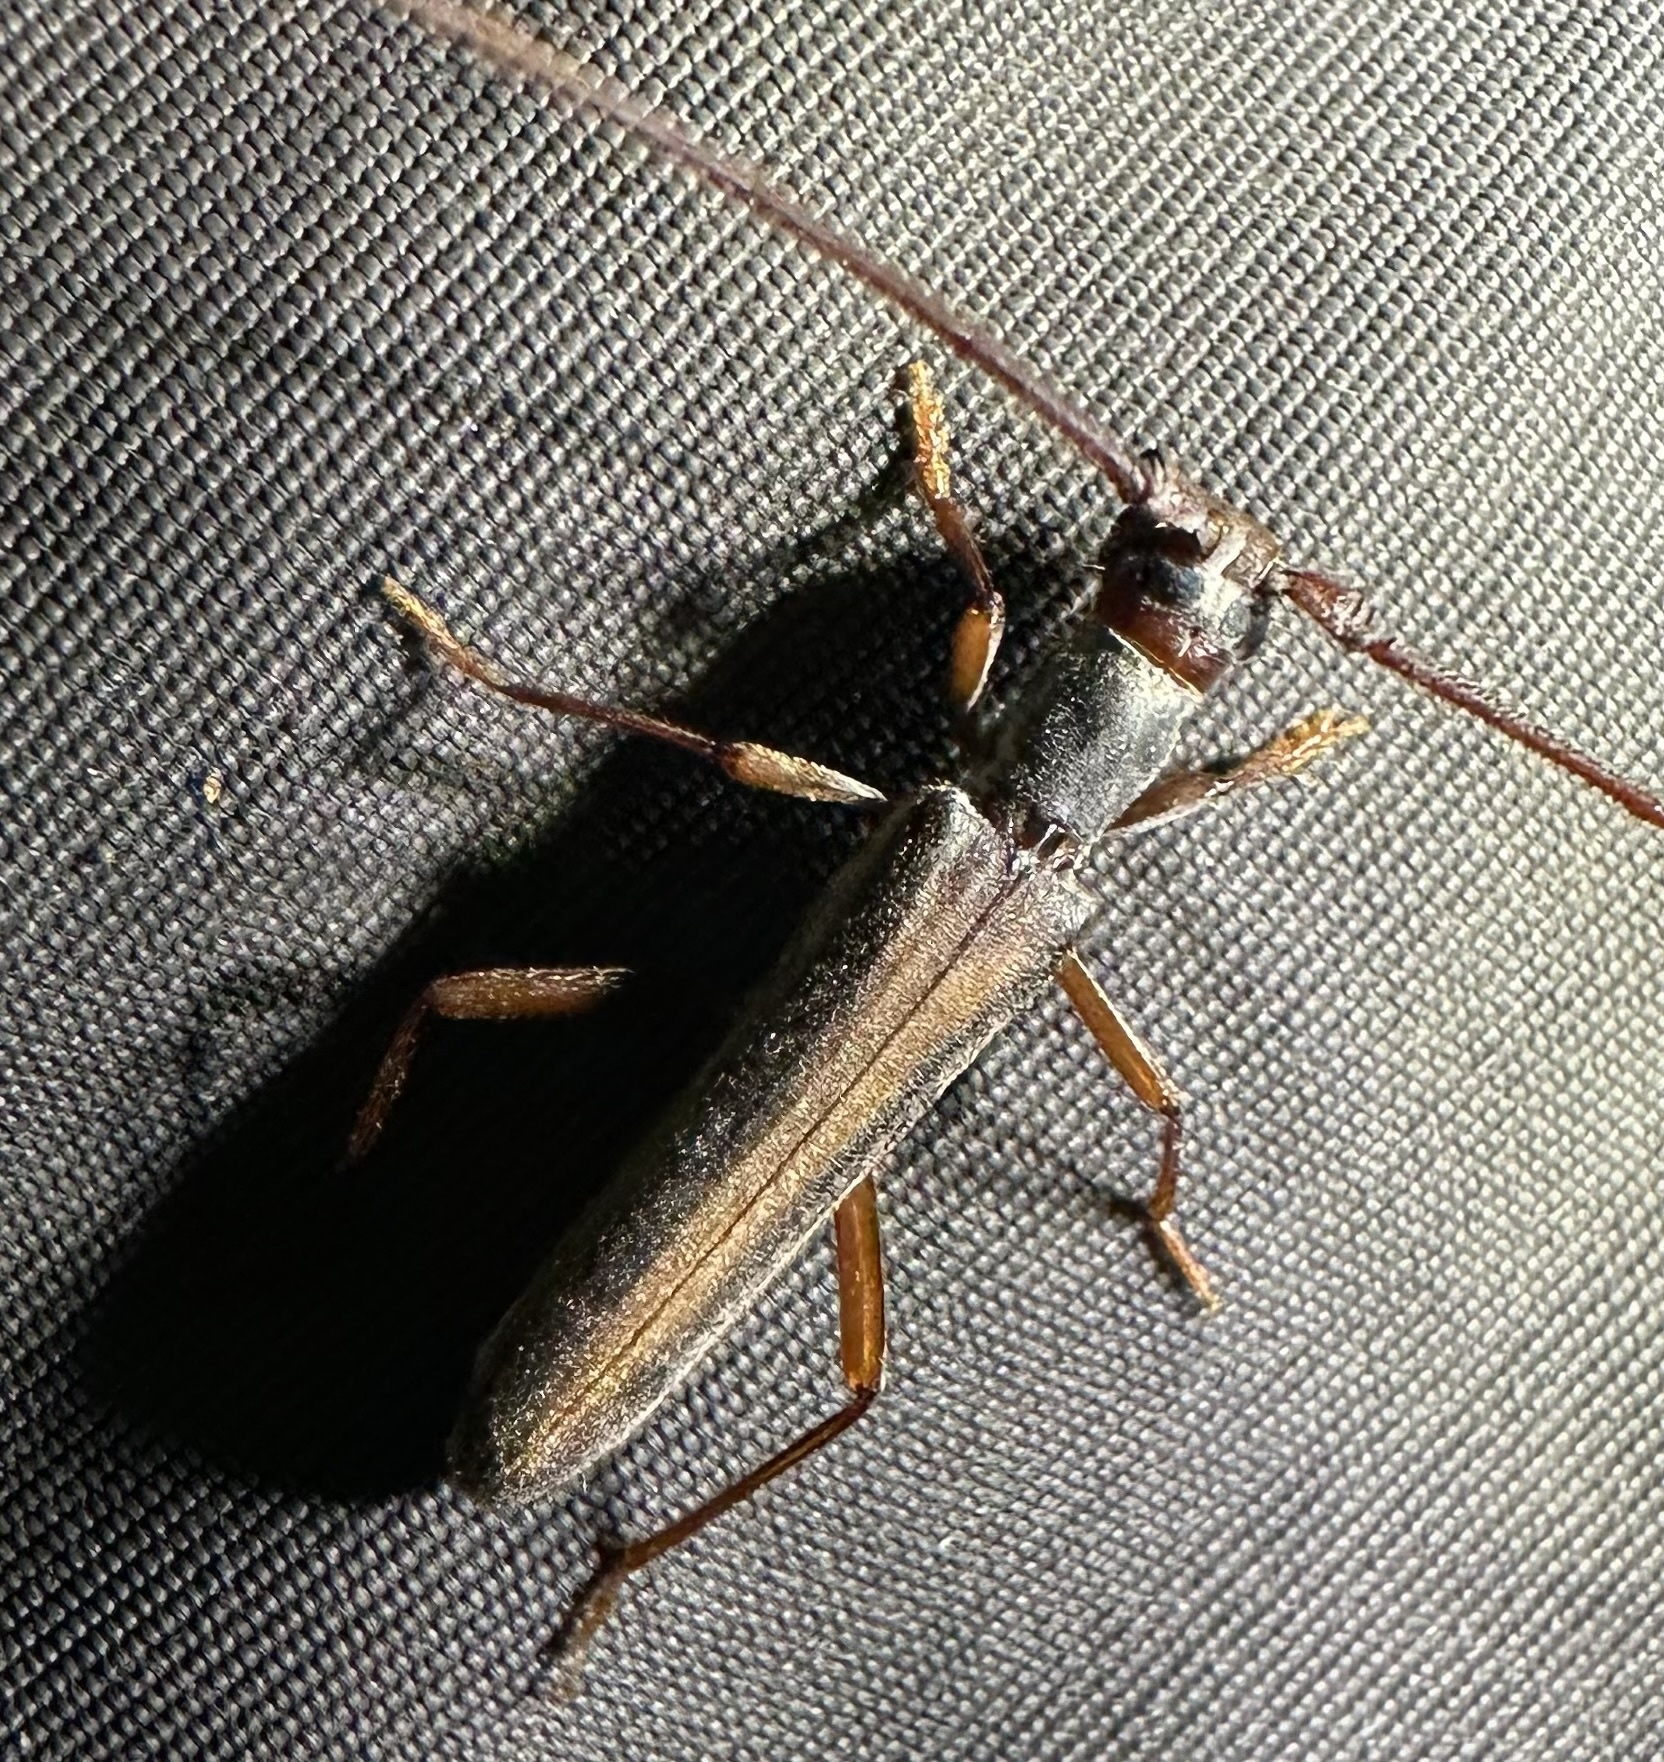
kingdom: Animalia
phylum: Arthropoda
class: Insecta
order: Coleoptera
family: Cerambycidae
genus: Diptychoeme
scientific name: Diptychoeme suturalis
